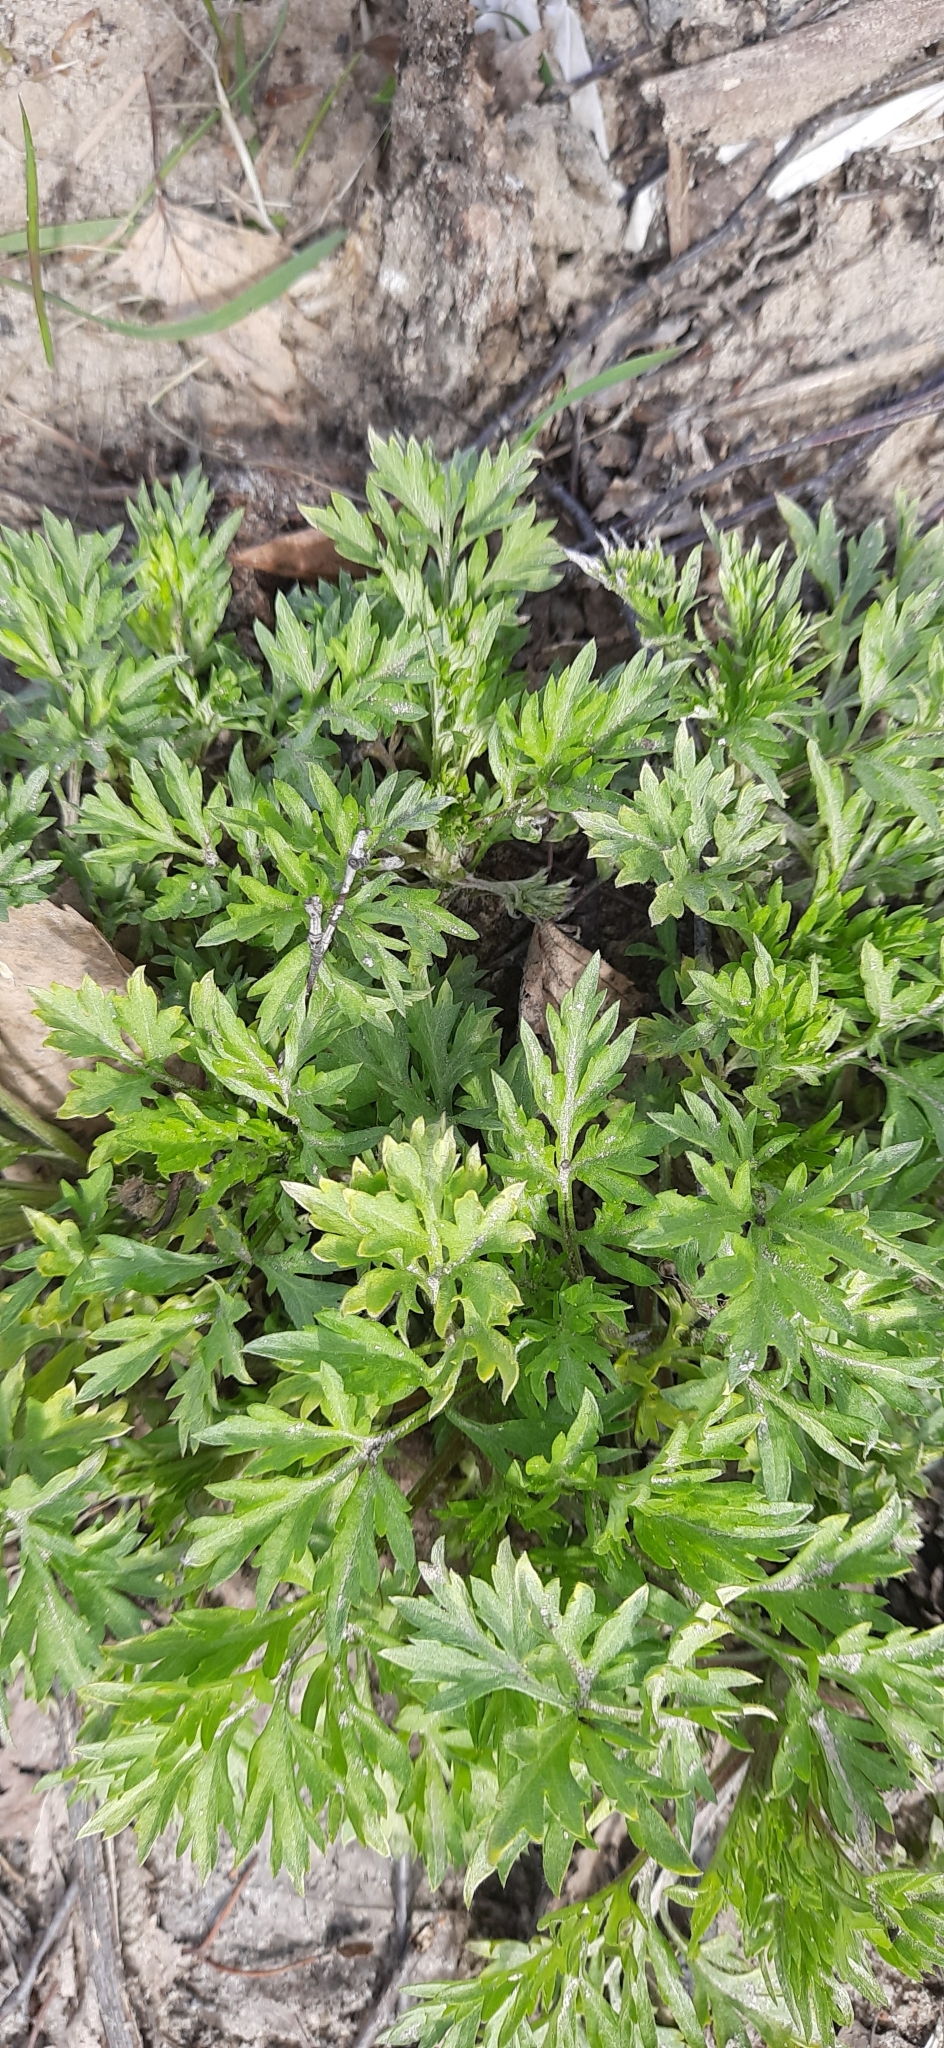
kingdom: Plantae
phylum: Tracheophyta
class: Magnoliopsida
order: Asterales
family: Asteraceae
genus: Artemisia
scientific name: Artemisia vulgaris
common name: Mugwort
